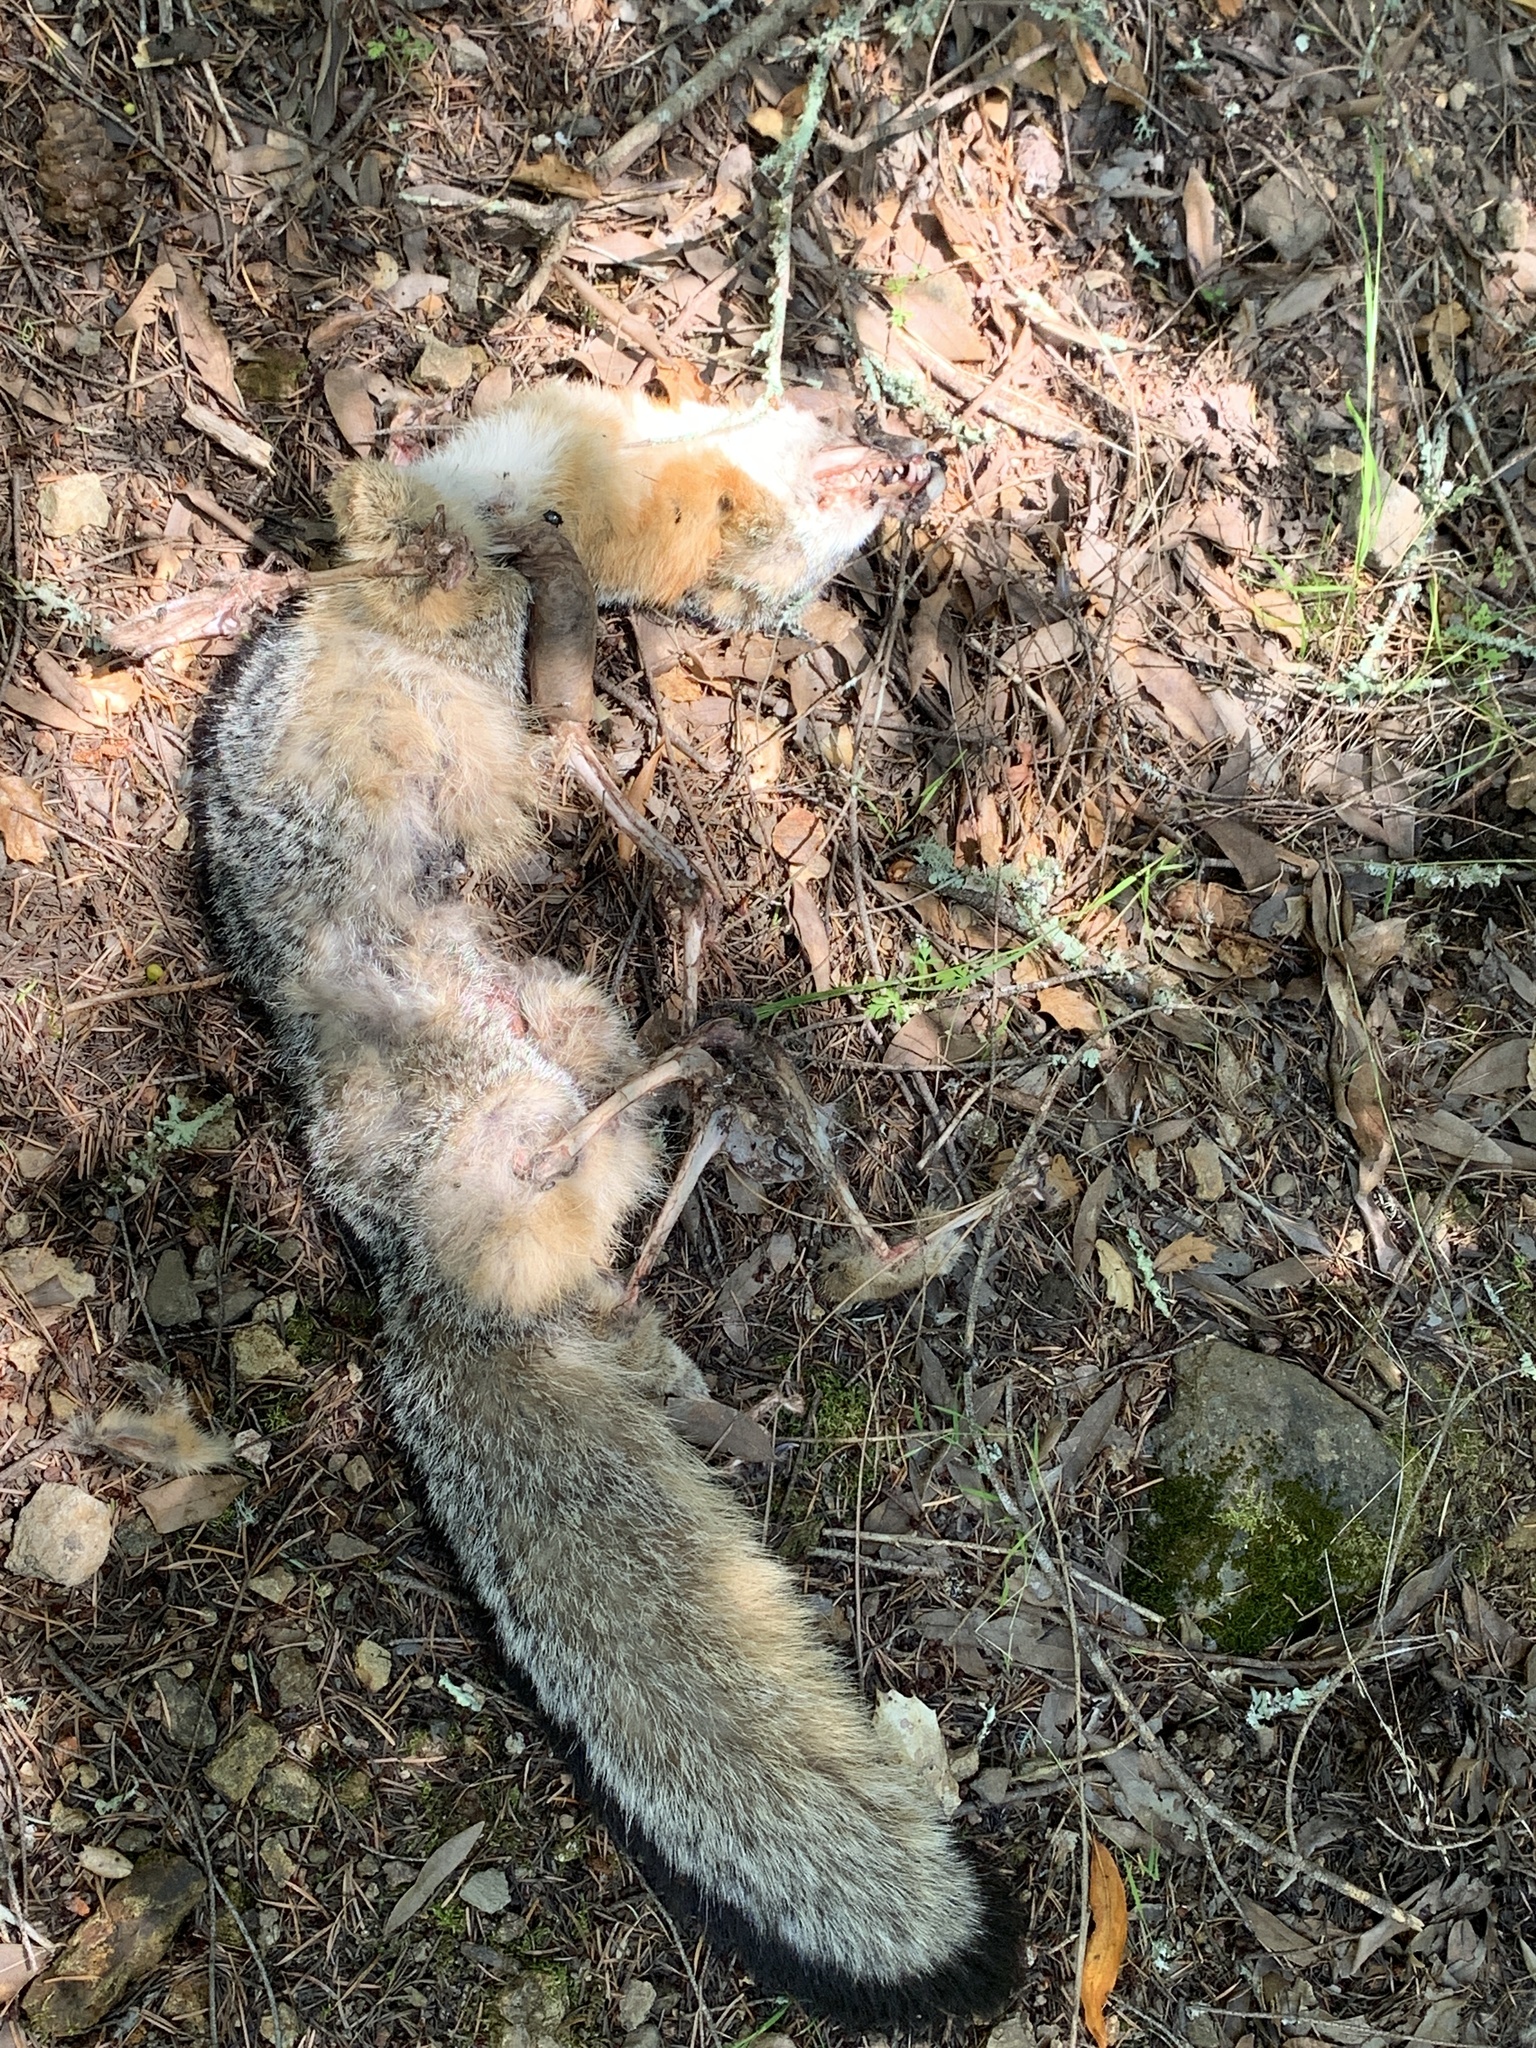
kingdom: Animalia
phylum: Chordata
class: Mammalia
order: Carnivora
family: Canidae
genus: Urocyon
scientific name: Urocyon cinereoargenteus
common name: Gray fox
